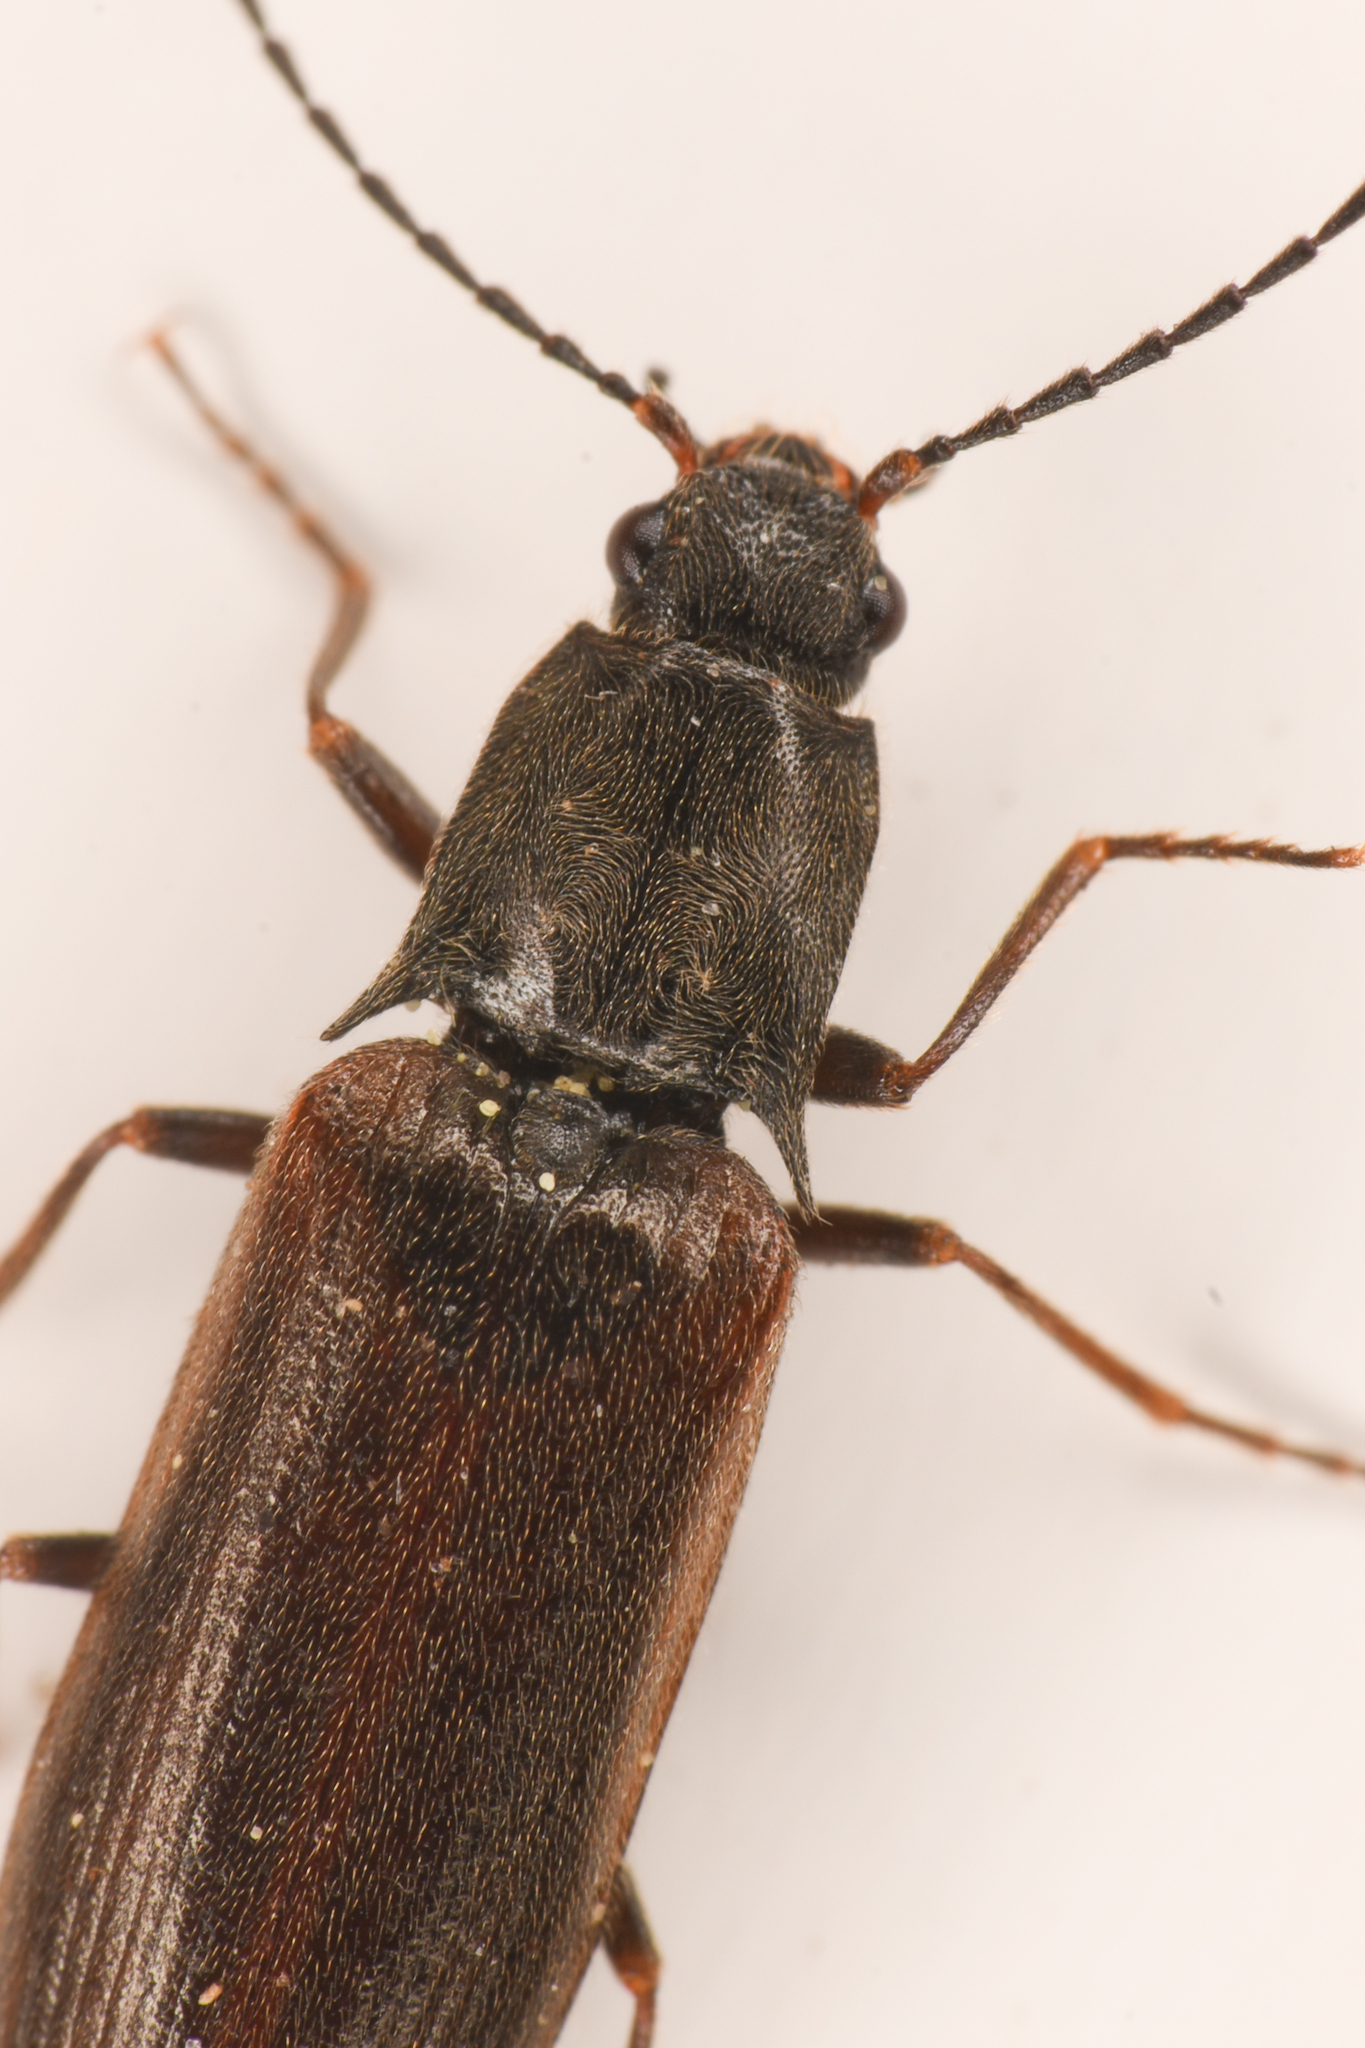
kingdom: Animalia
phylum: Arthropoda
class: Insecta
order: Coleoptera
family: Elateridae
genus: Metanomus
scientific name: Metanomus insidiosus
